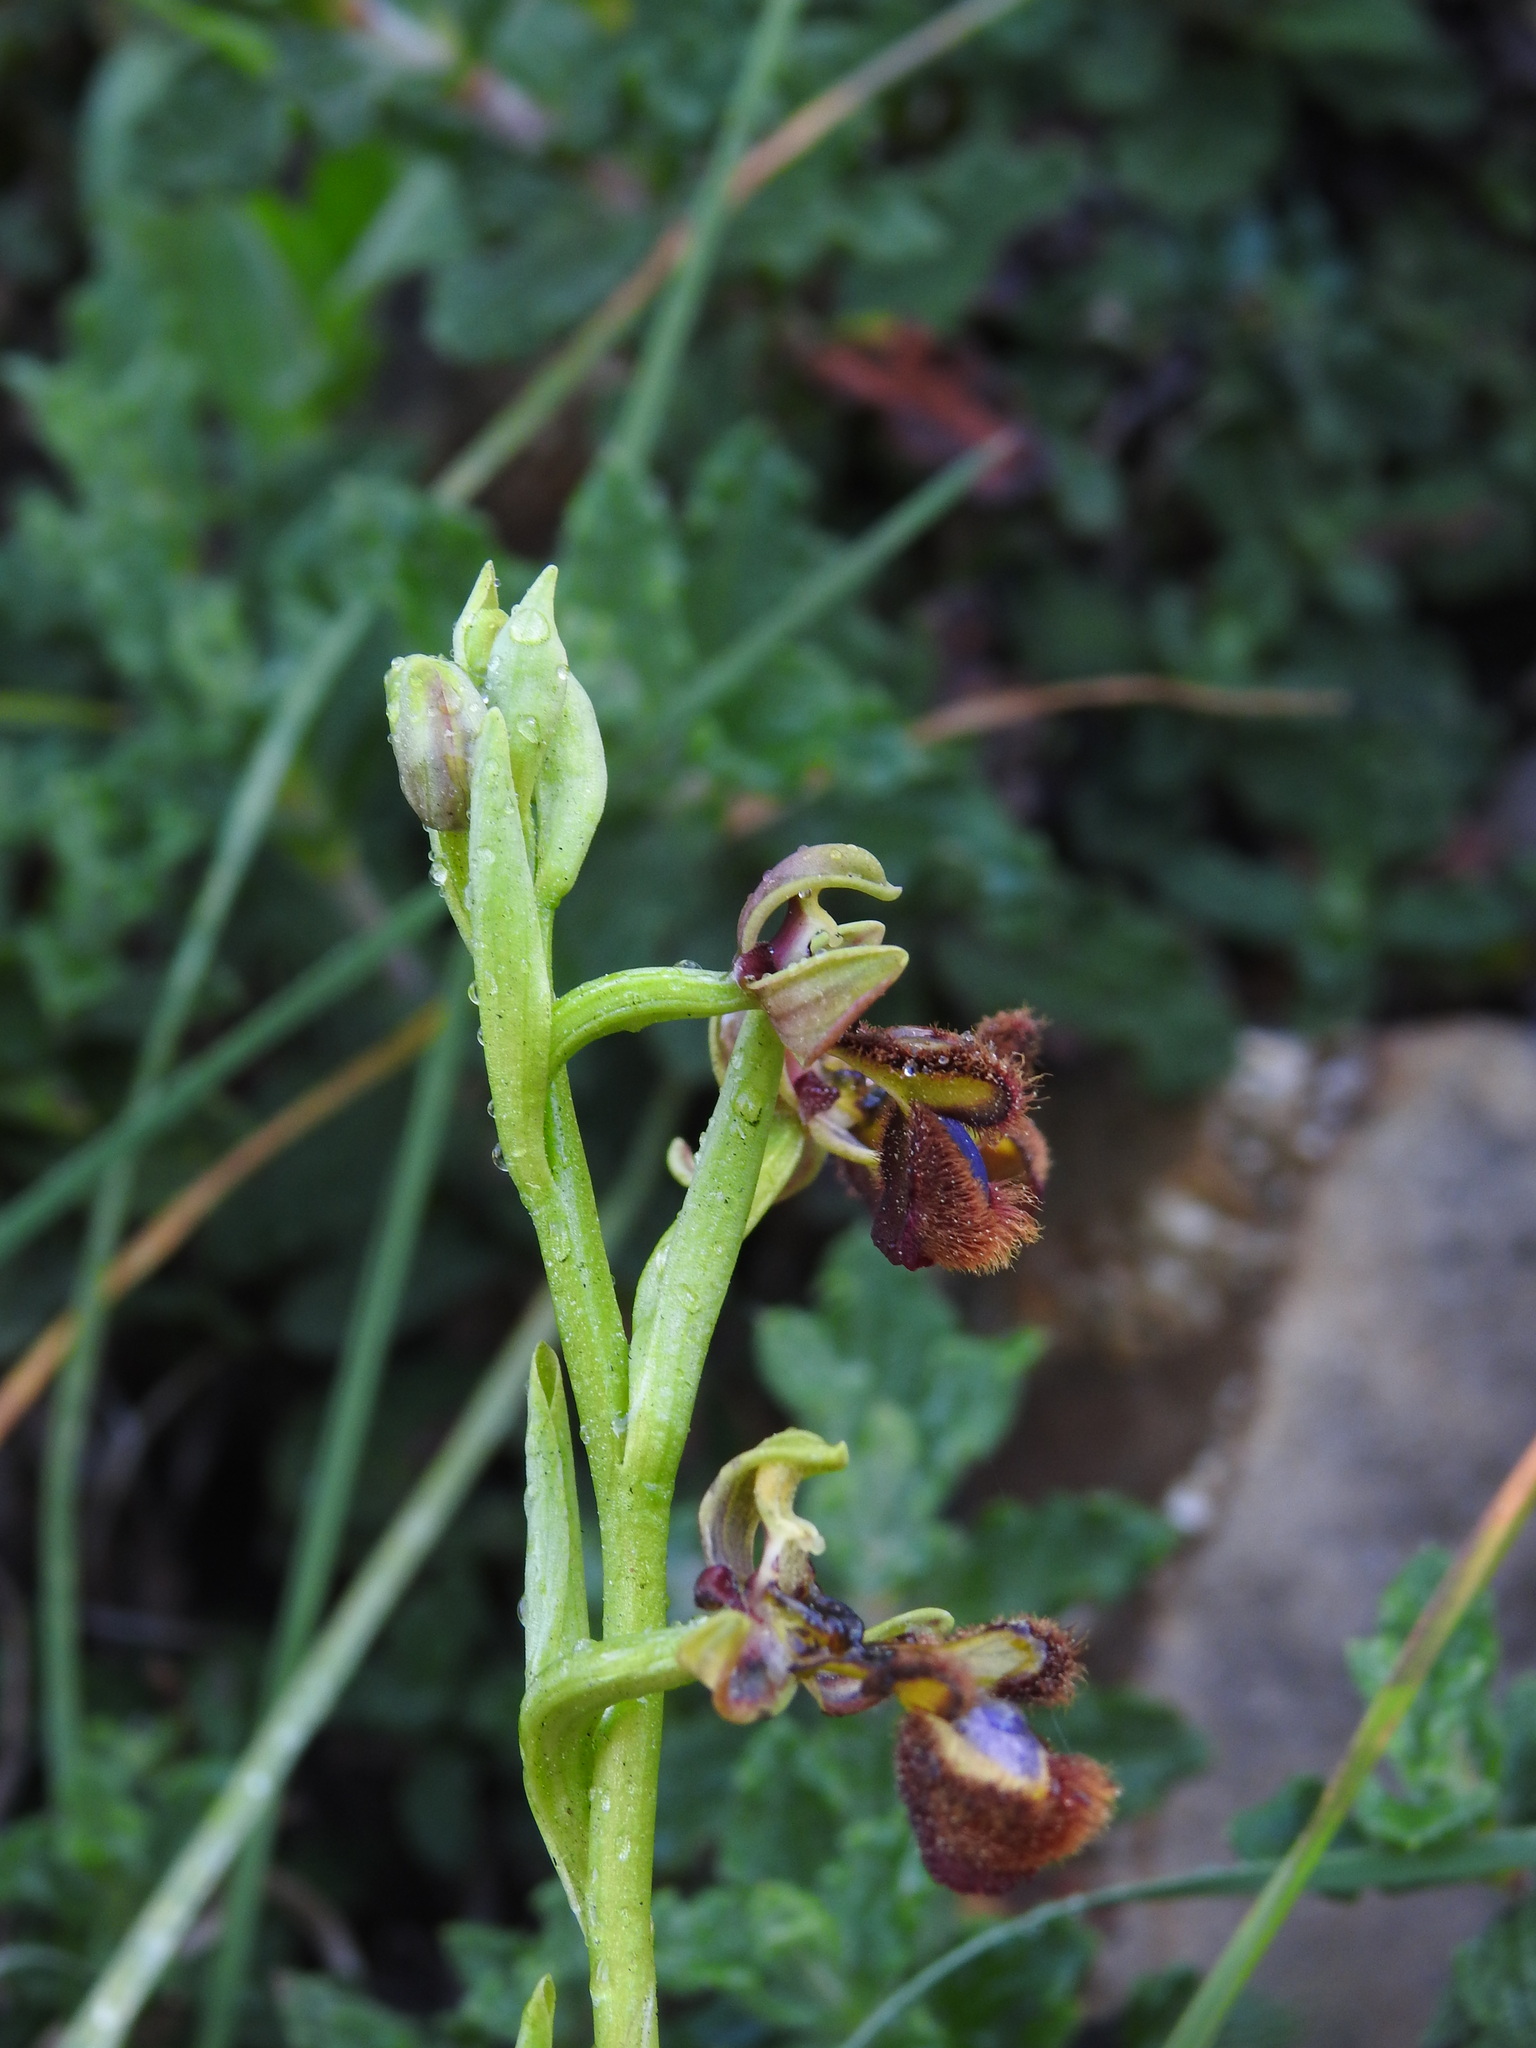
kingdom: Plantae
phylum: Tracheophyta
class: Liliopsida
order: Asparagales
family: Orchidaceae
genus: Ophrys
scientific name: Ophrys speculum
